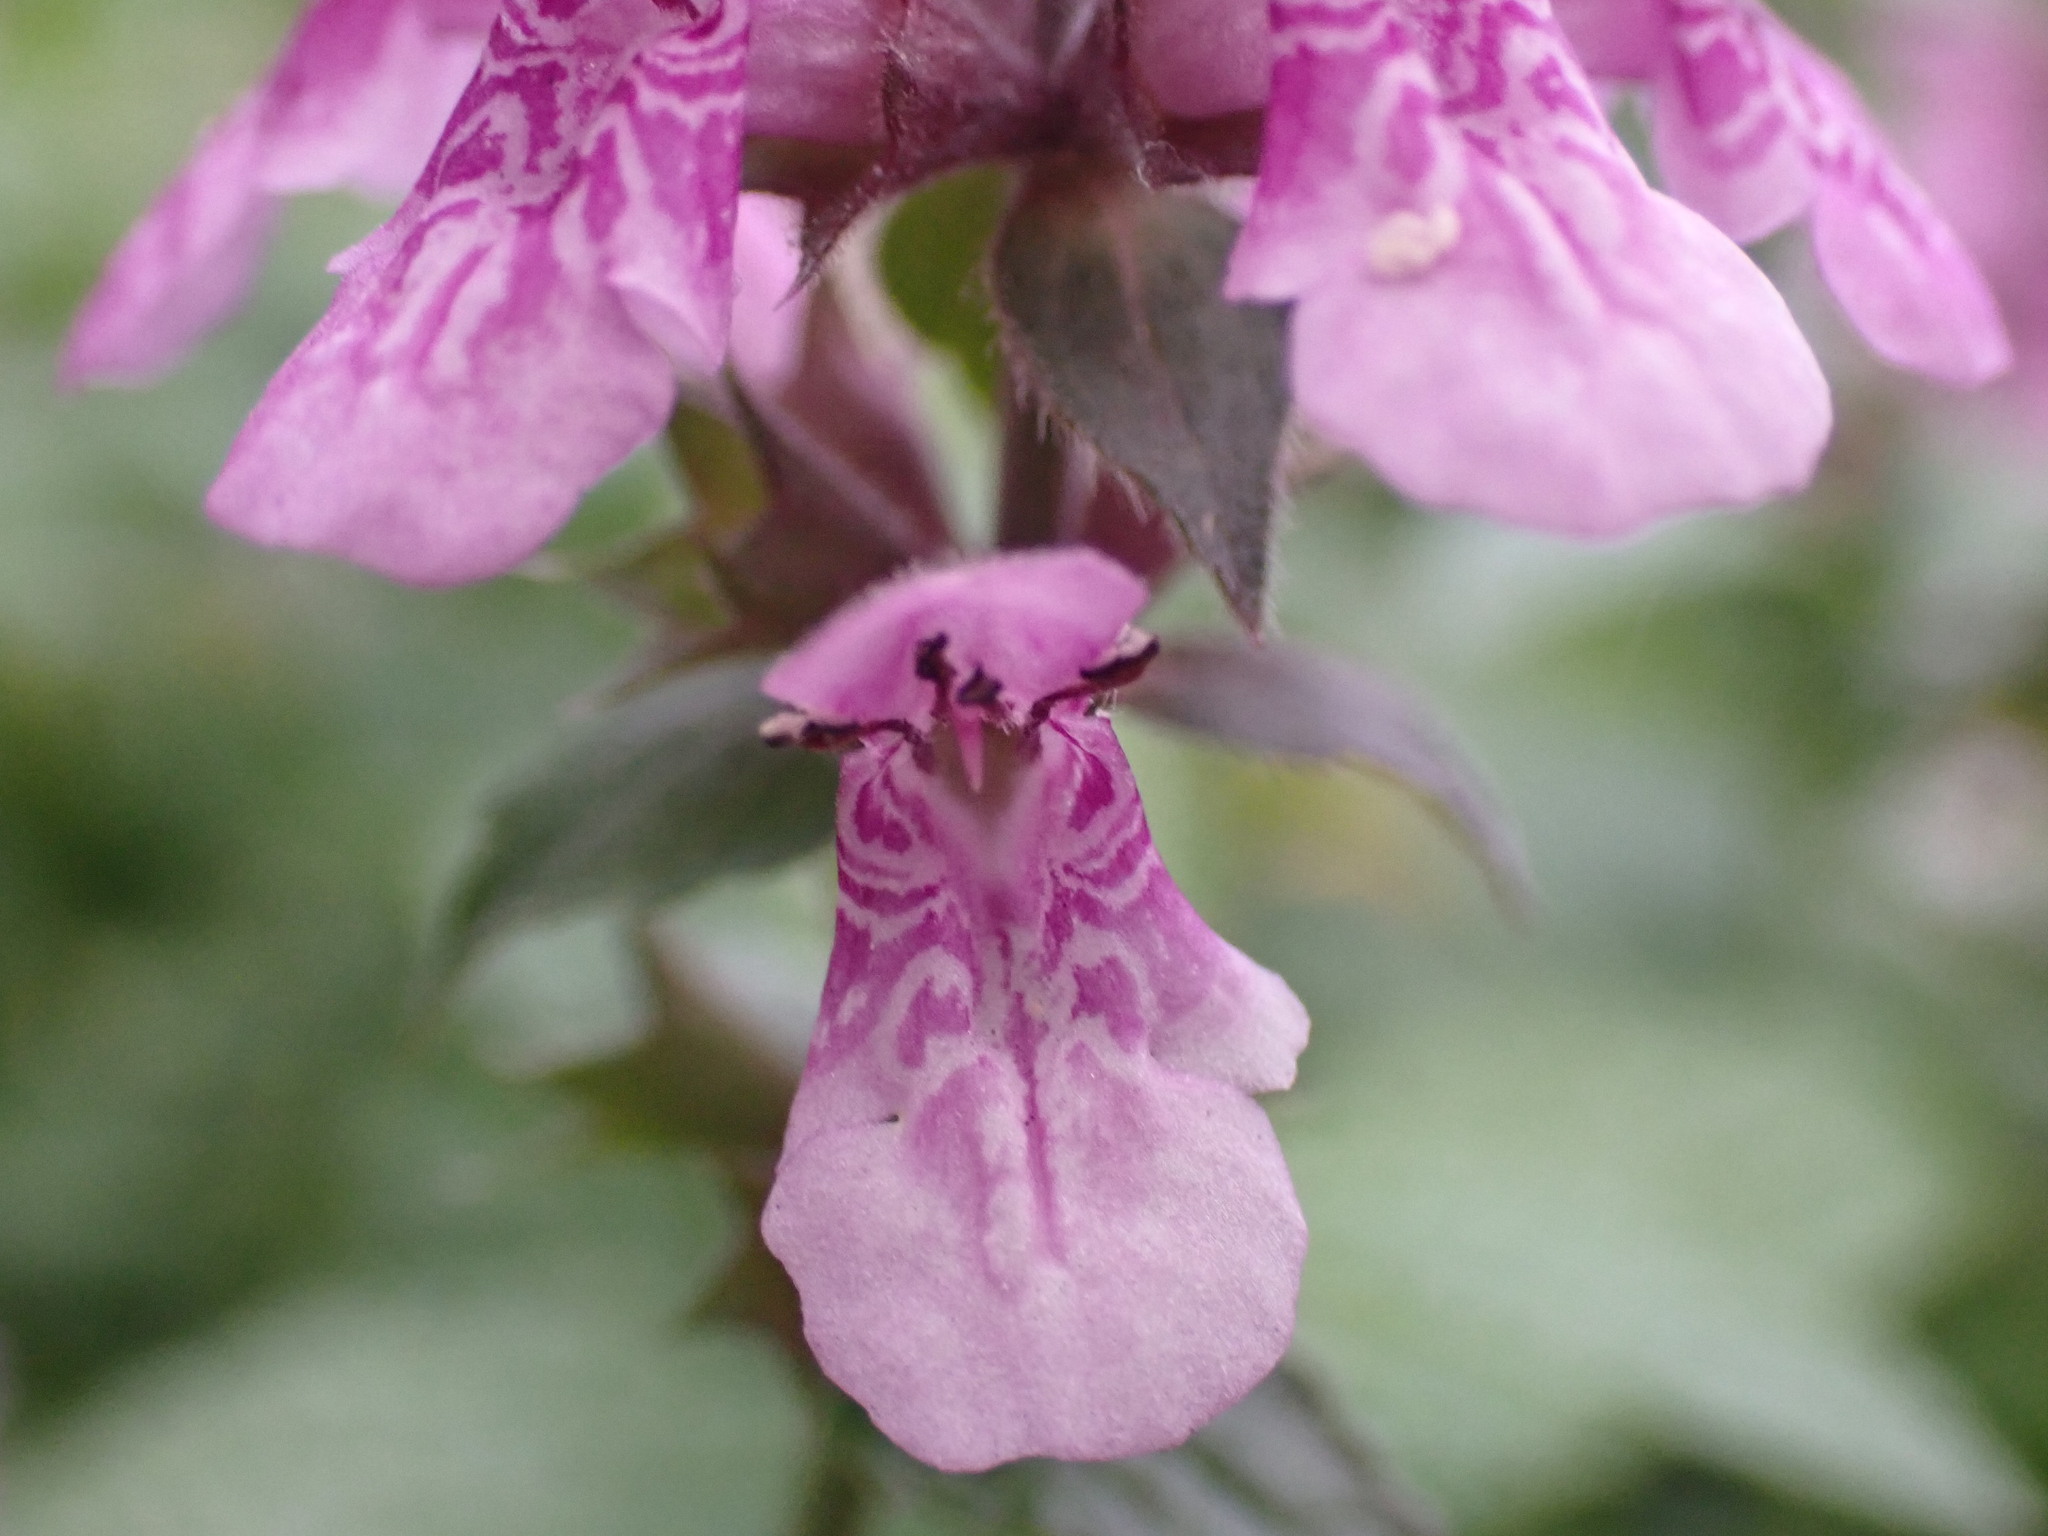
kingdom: Plantae
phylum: Tracheophyta
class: Magnoliopsida
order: Lamiales
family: Lamiaceae
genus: Stachys
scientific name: Stachys palustris
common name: Marsh woundwort
